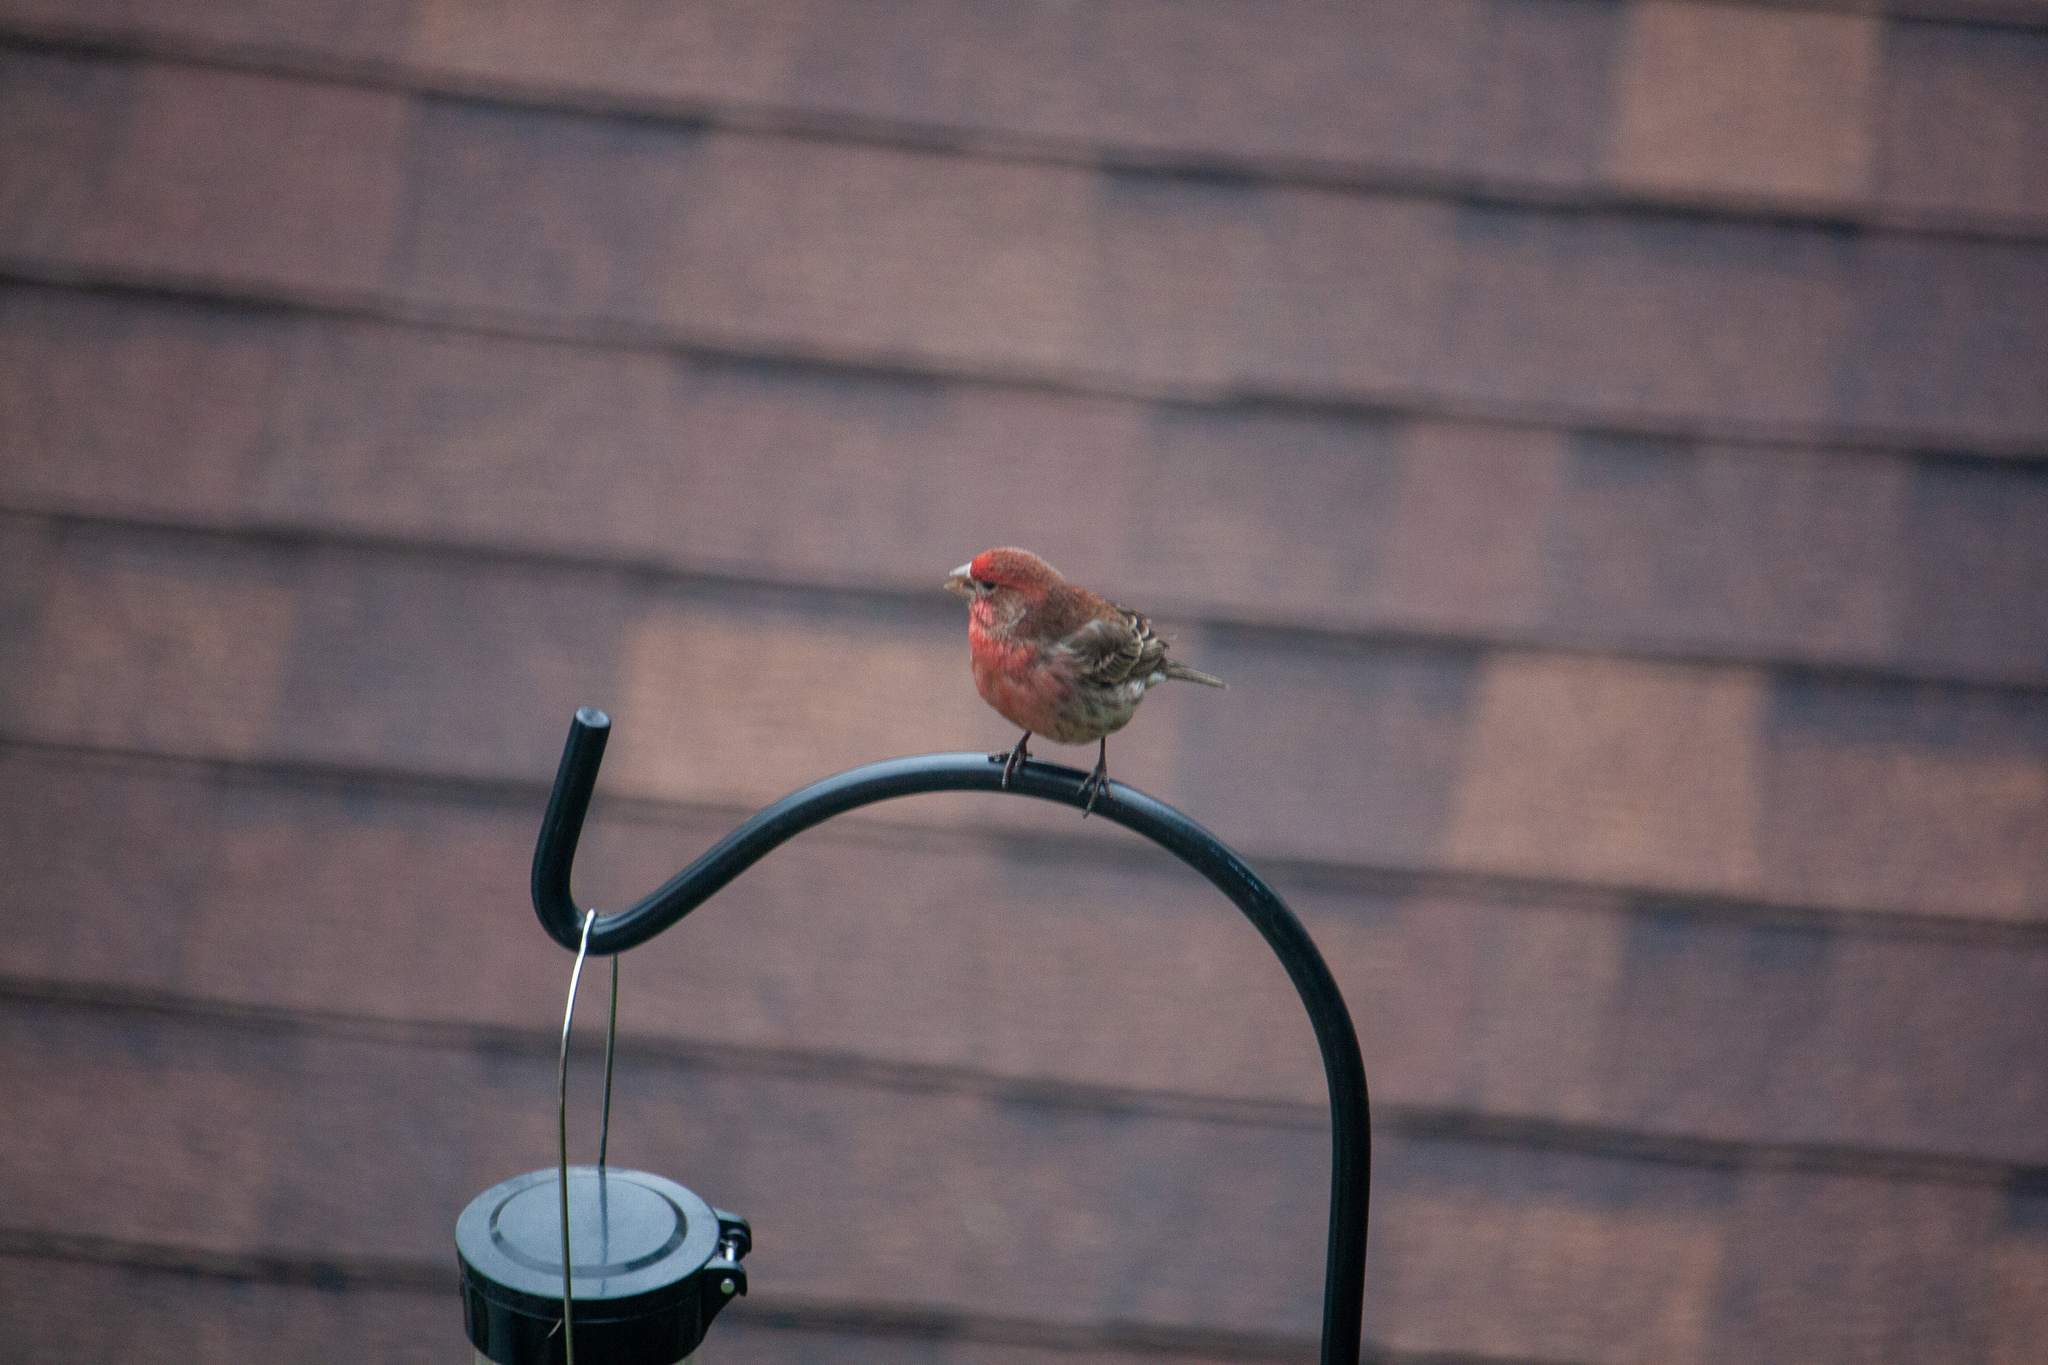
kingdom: Animalia
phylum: Chordata
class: Aves
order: Passeriformes
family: Fringillidae
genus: Haemorhous
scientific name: Haemorhous mexicanus
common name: House finch
